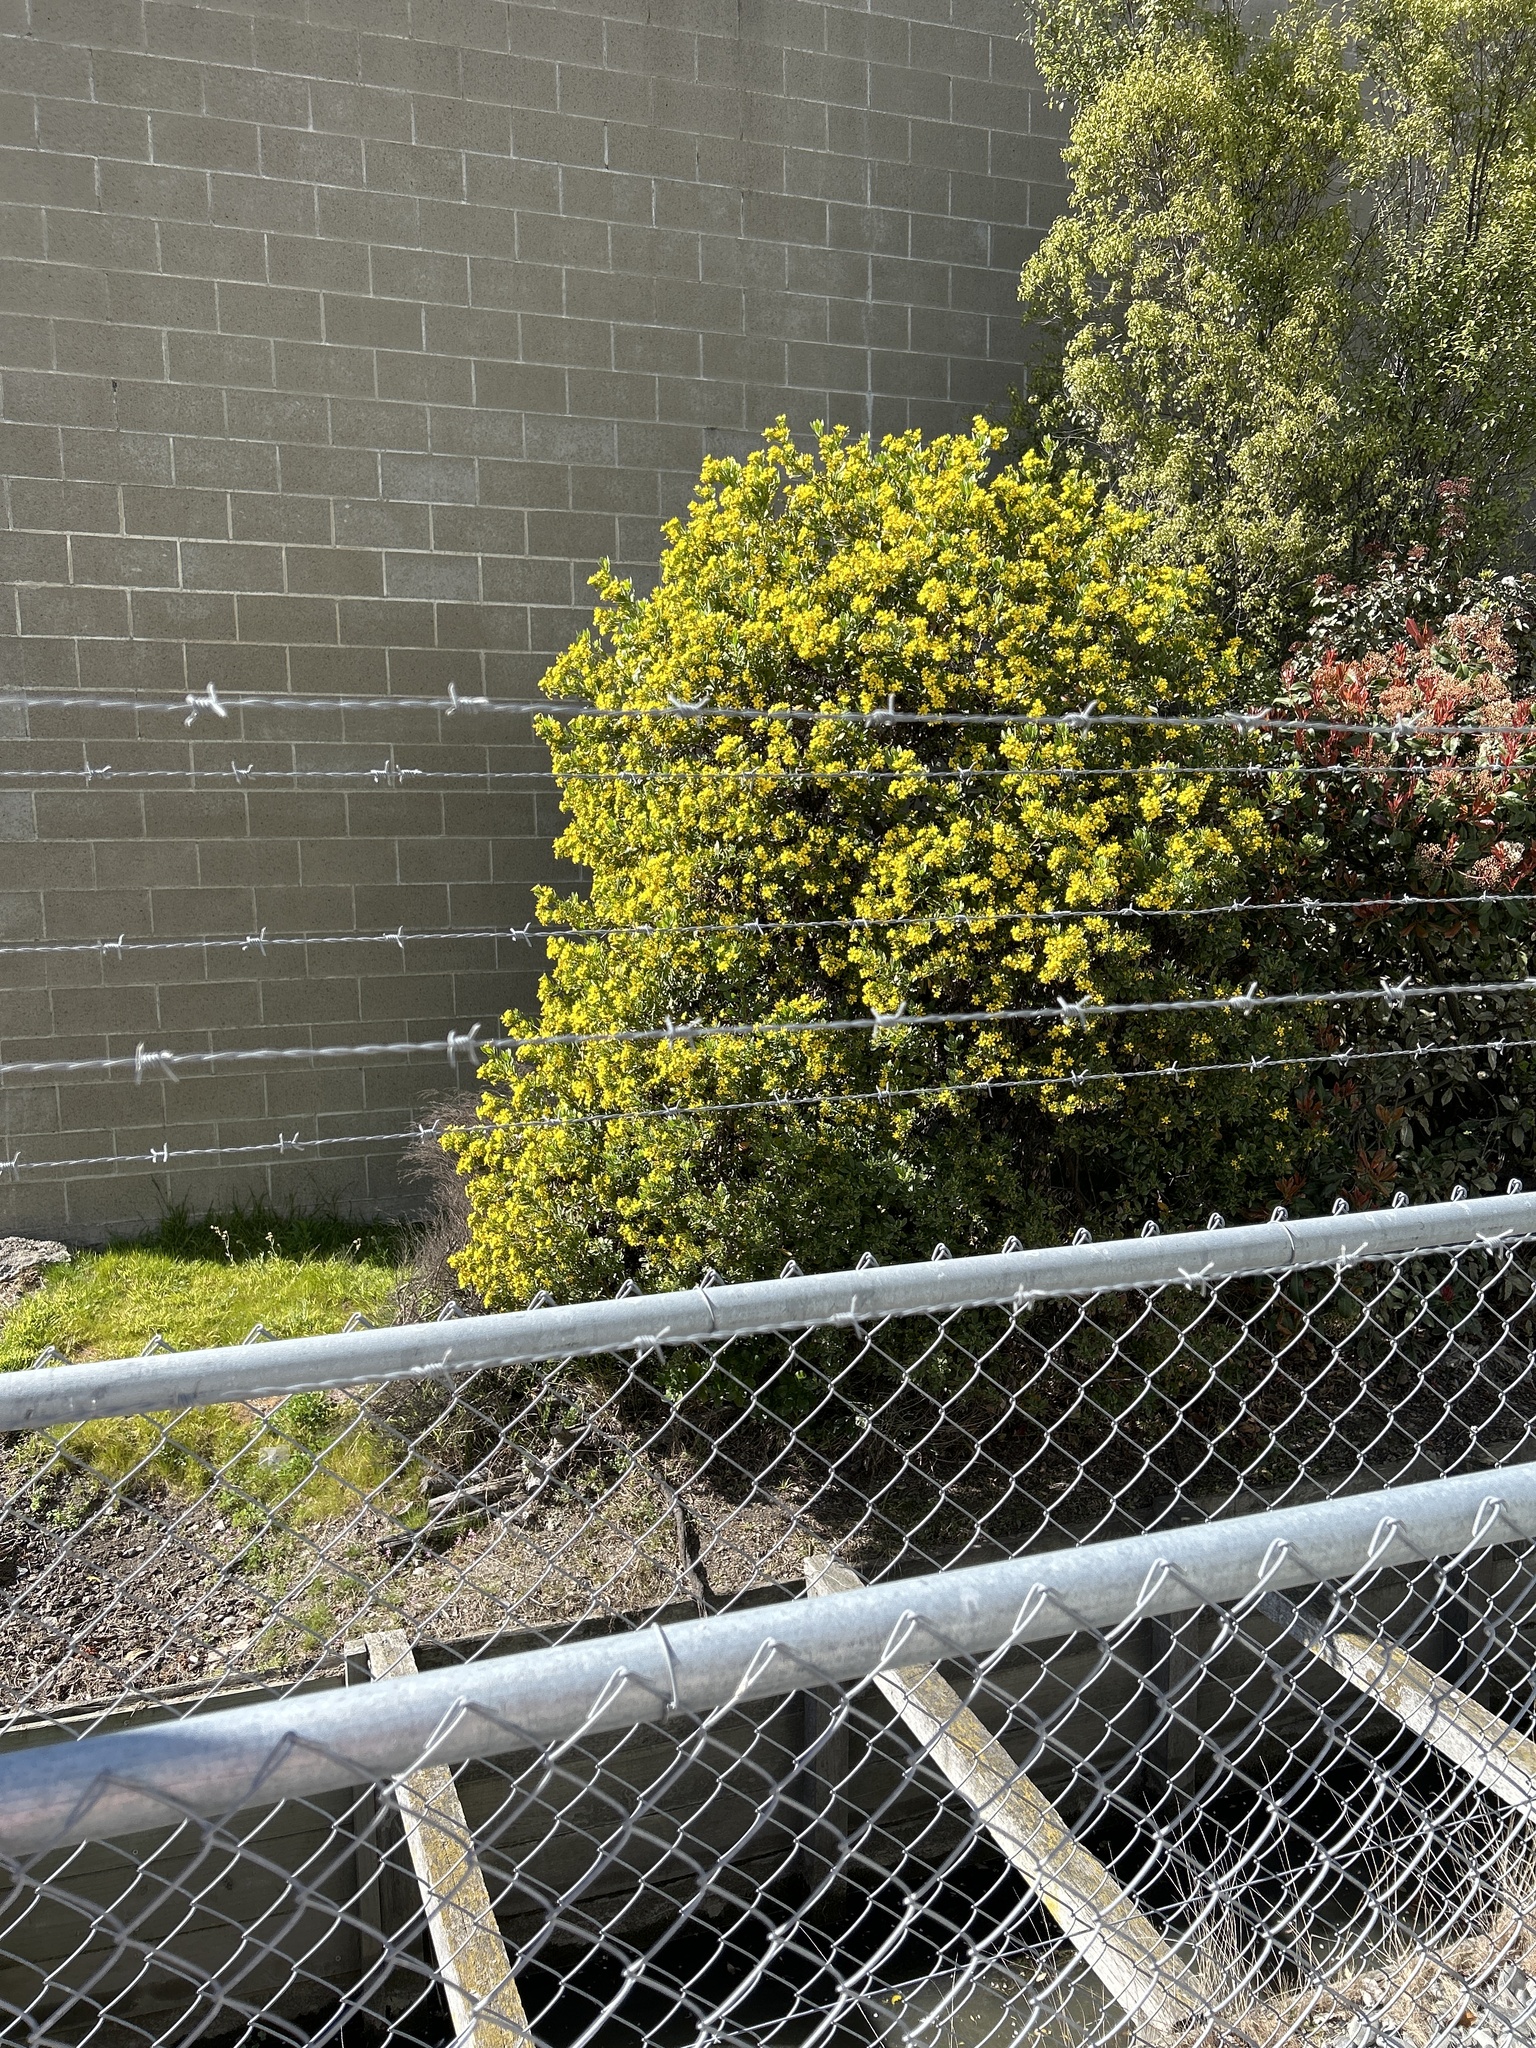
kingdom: Plantae
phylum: Tracheophyta
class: Magnoliopsida
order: Asterales
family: Asteraceae
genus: Osteospermum
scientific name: Osteospermum moniliferum
